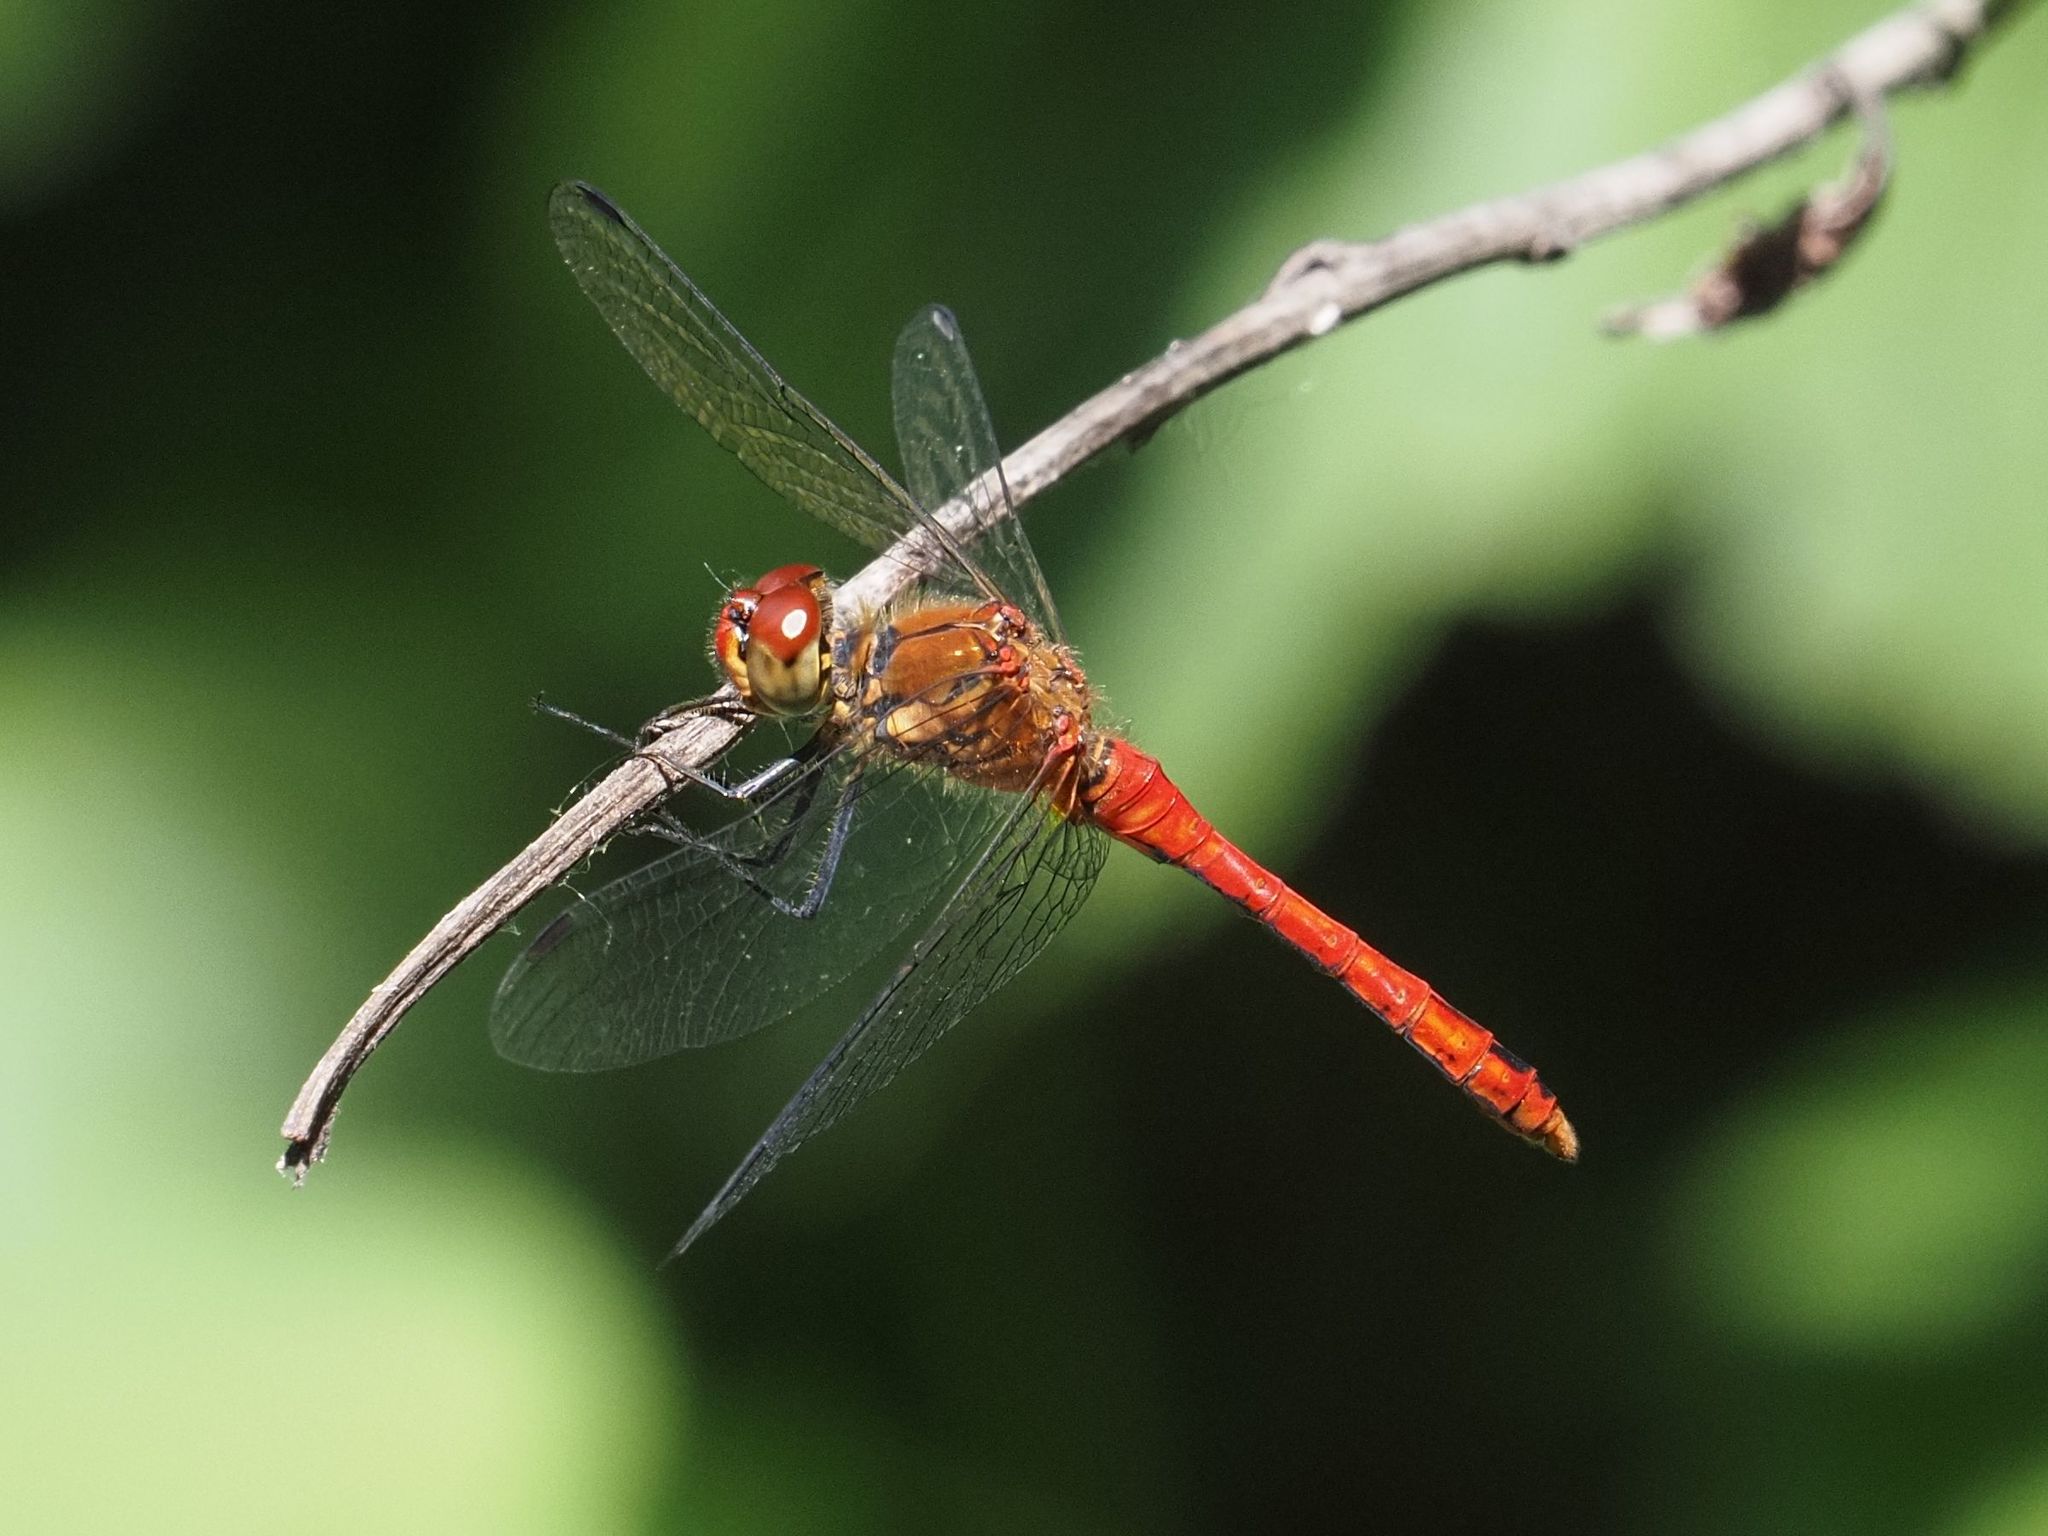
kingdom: Animalia
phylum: Arthropoda
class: Insecta
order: Odonata
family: Libellulidae
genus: Sympetrum
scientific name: Sympetrum sanguineum
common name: Ruddy darter
